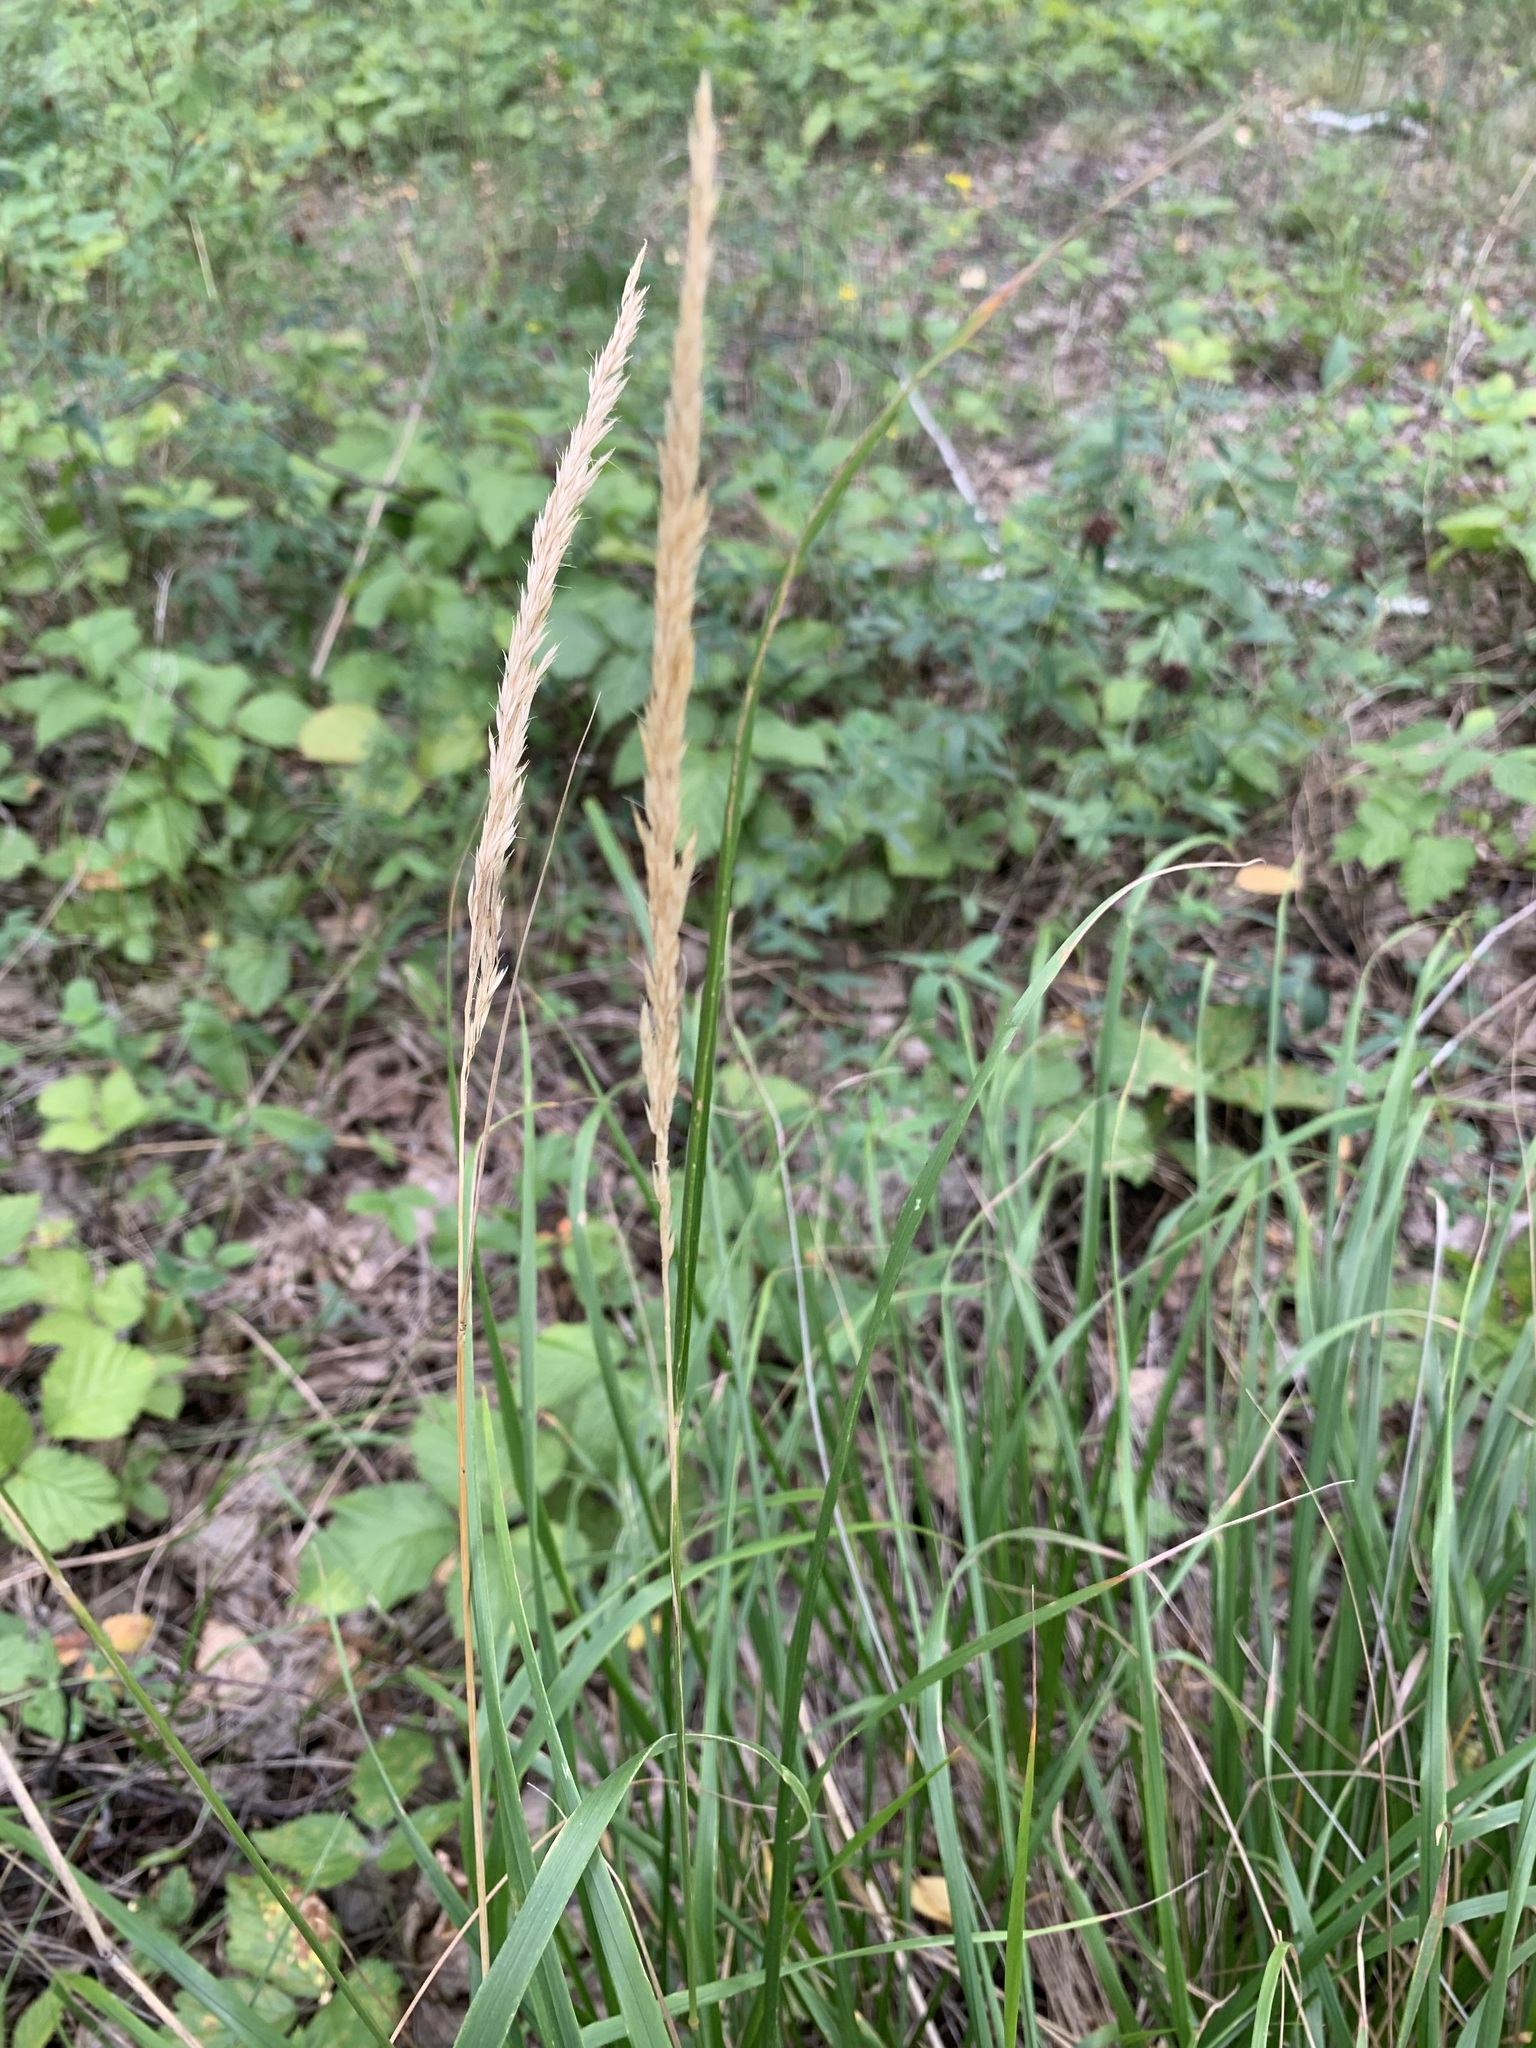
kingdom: Plantae
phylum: Tracheophyta
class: Liliopsida
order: Poales
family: Poaceae
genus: Calamagrostis
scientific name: Calamagrostis arundinacea
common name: Metskastik
